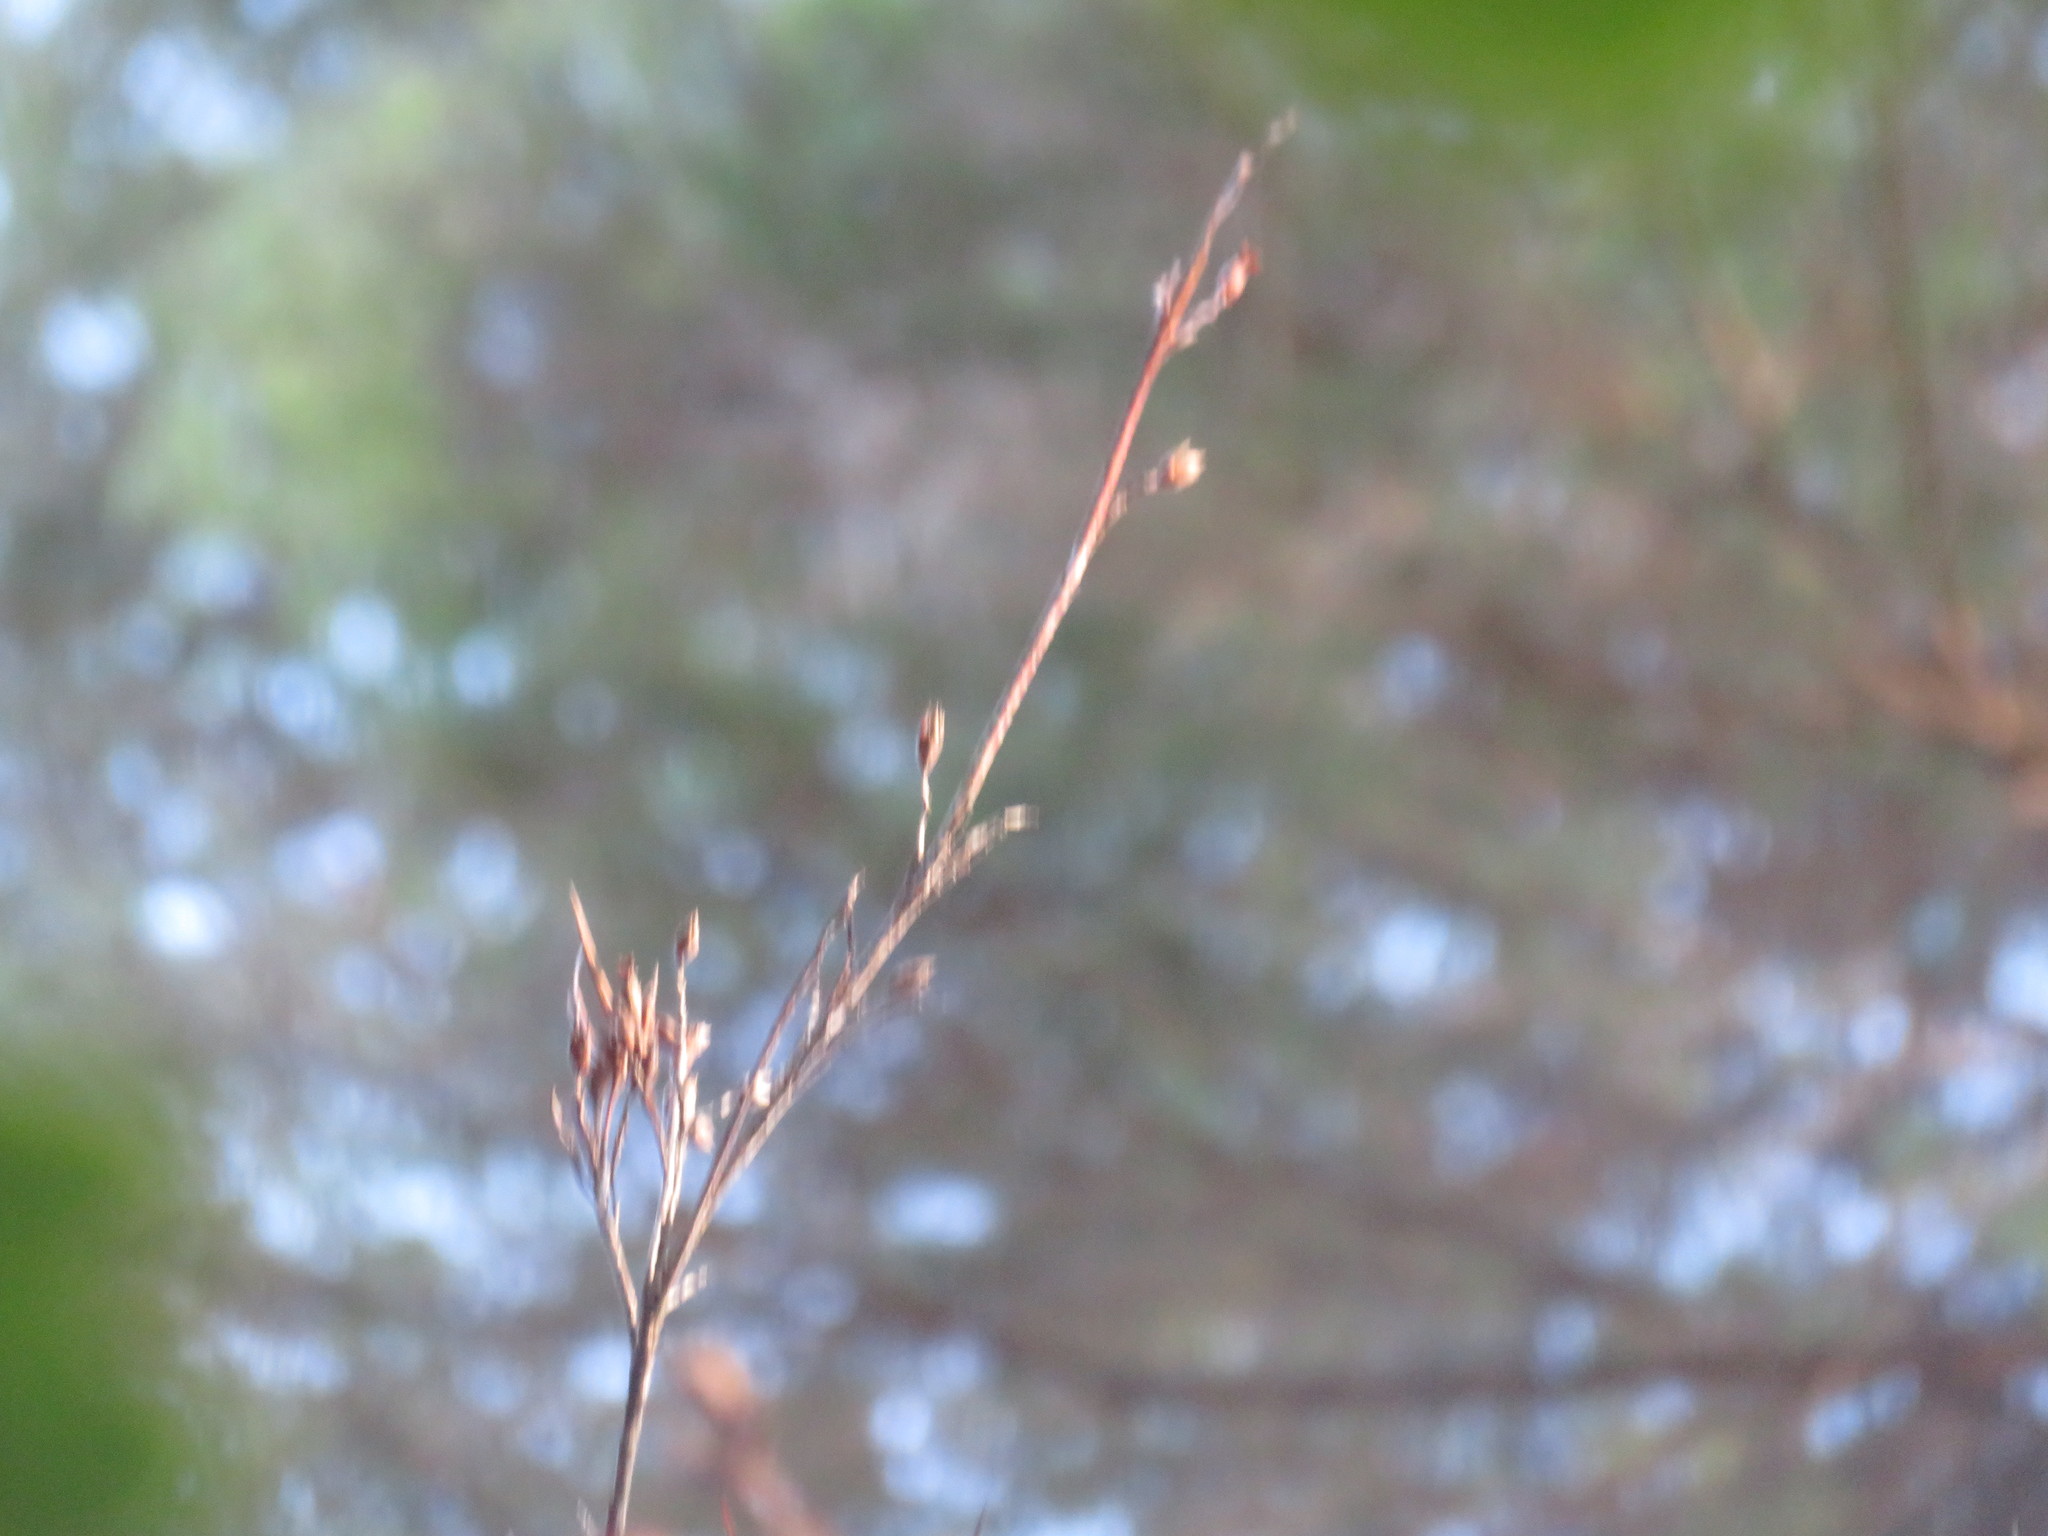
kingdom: Plantae
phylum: Tracheophyta
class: Magnoliopsida
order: Ericales
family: Ericaceae
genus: Dracophyllum
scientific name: Dracophyllum sinclairii
